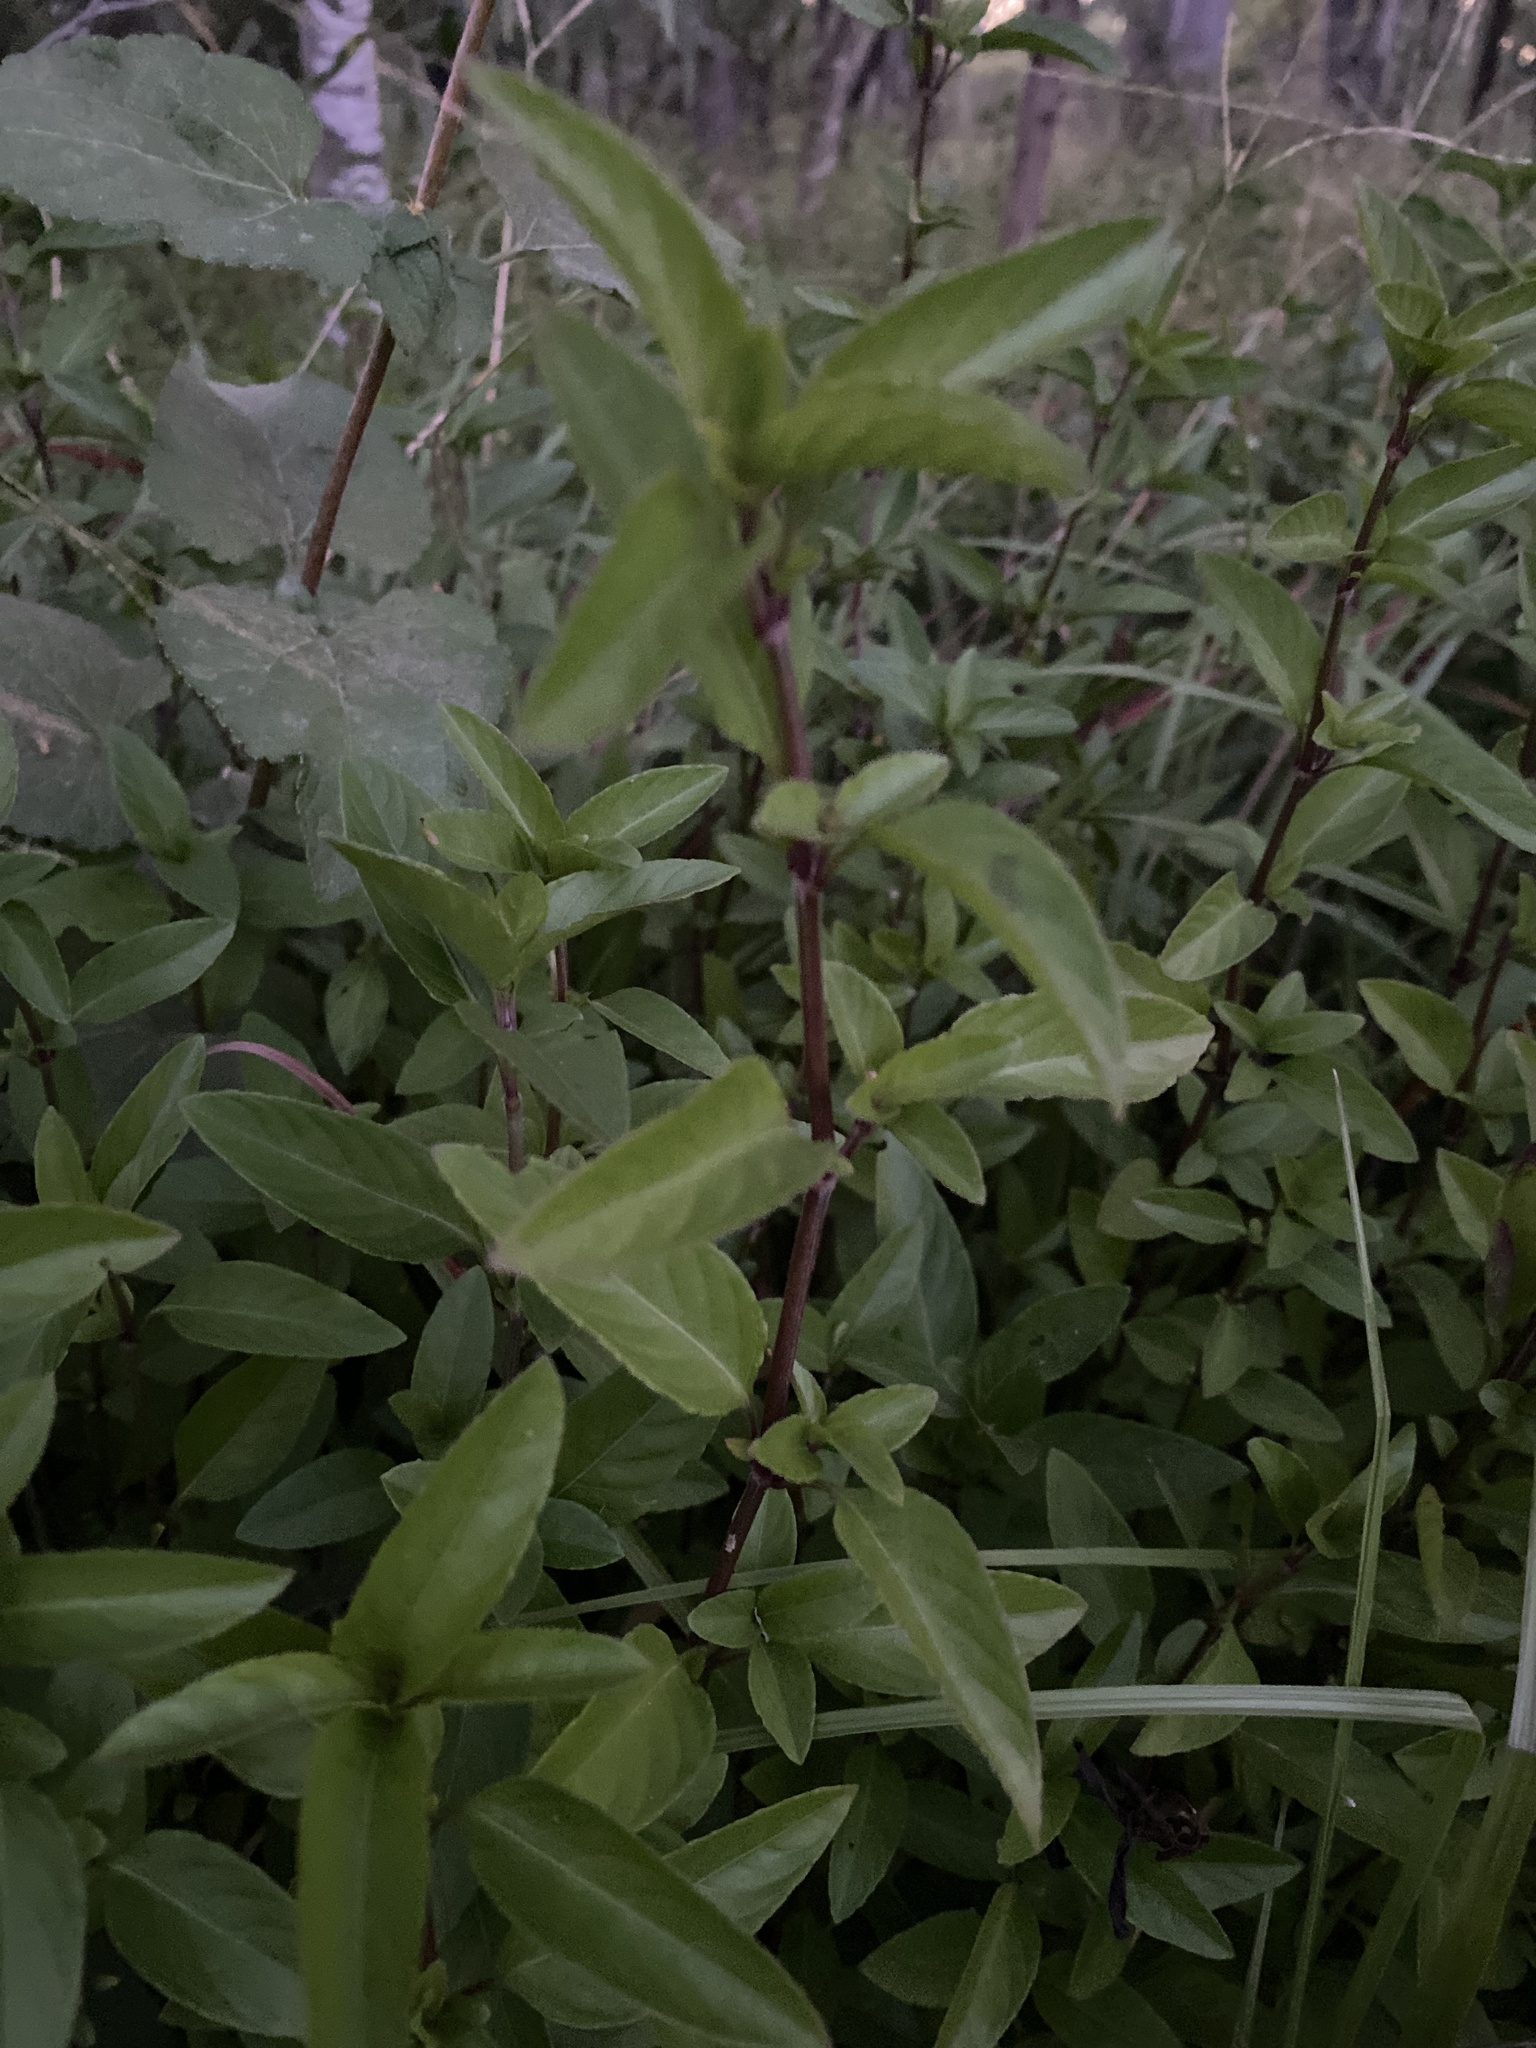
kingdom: Plantae
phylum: Tracheophyta
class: Magnoliopsida
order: Lamiales
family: Acanthaceae
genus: Hygrophila
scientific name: Hygrophila erecta
